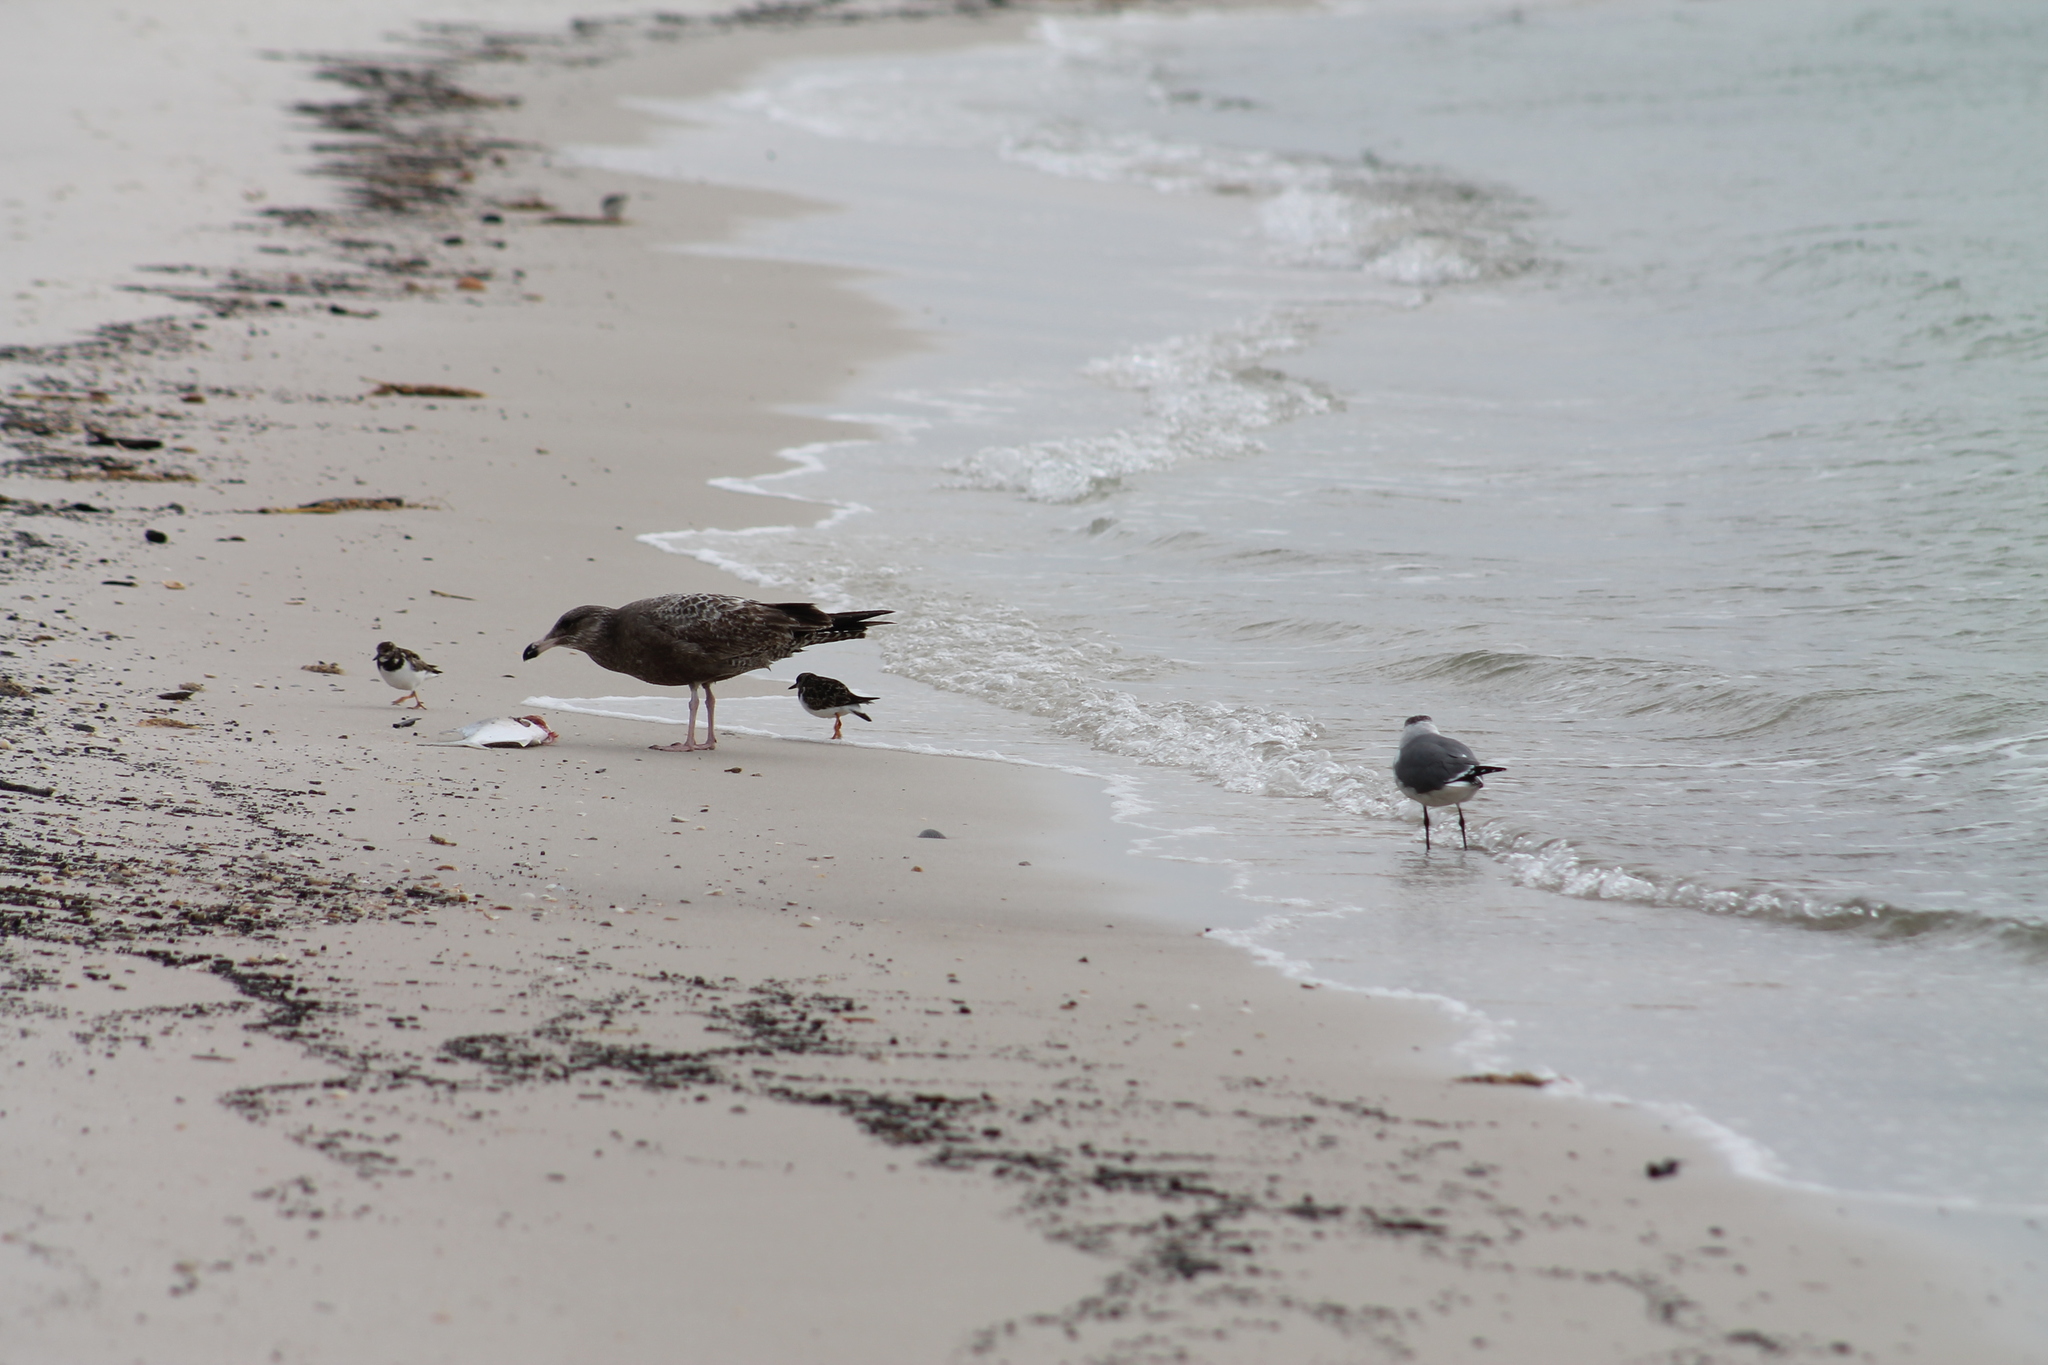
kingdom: Animalia
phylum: Chordata
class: Aves
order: Charadriiformes
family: Laridae
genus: Larus
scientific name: Larus argentatus
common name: Herring gull
